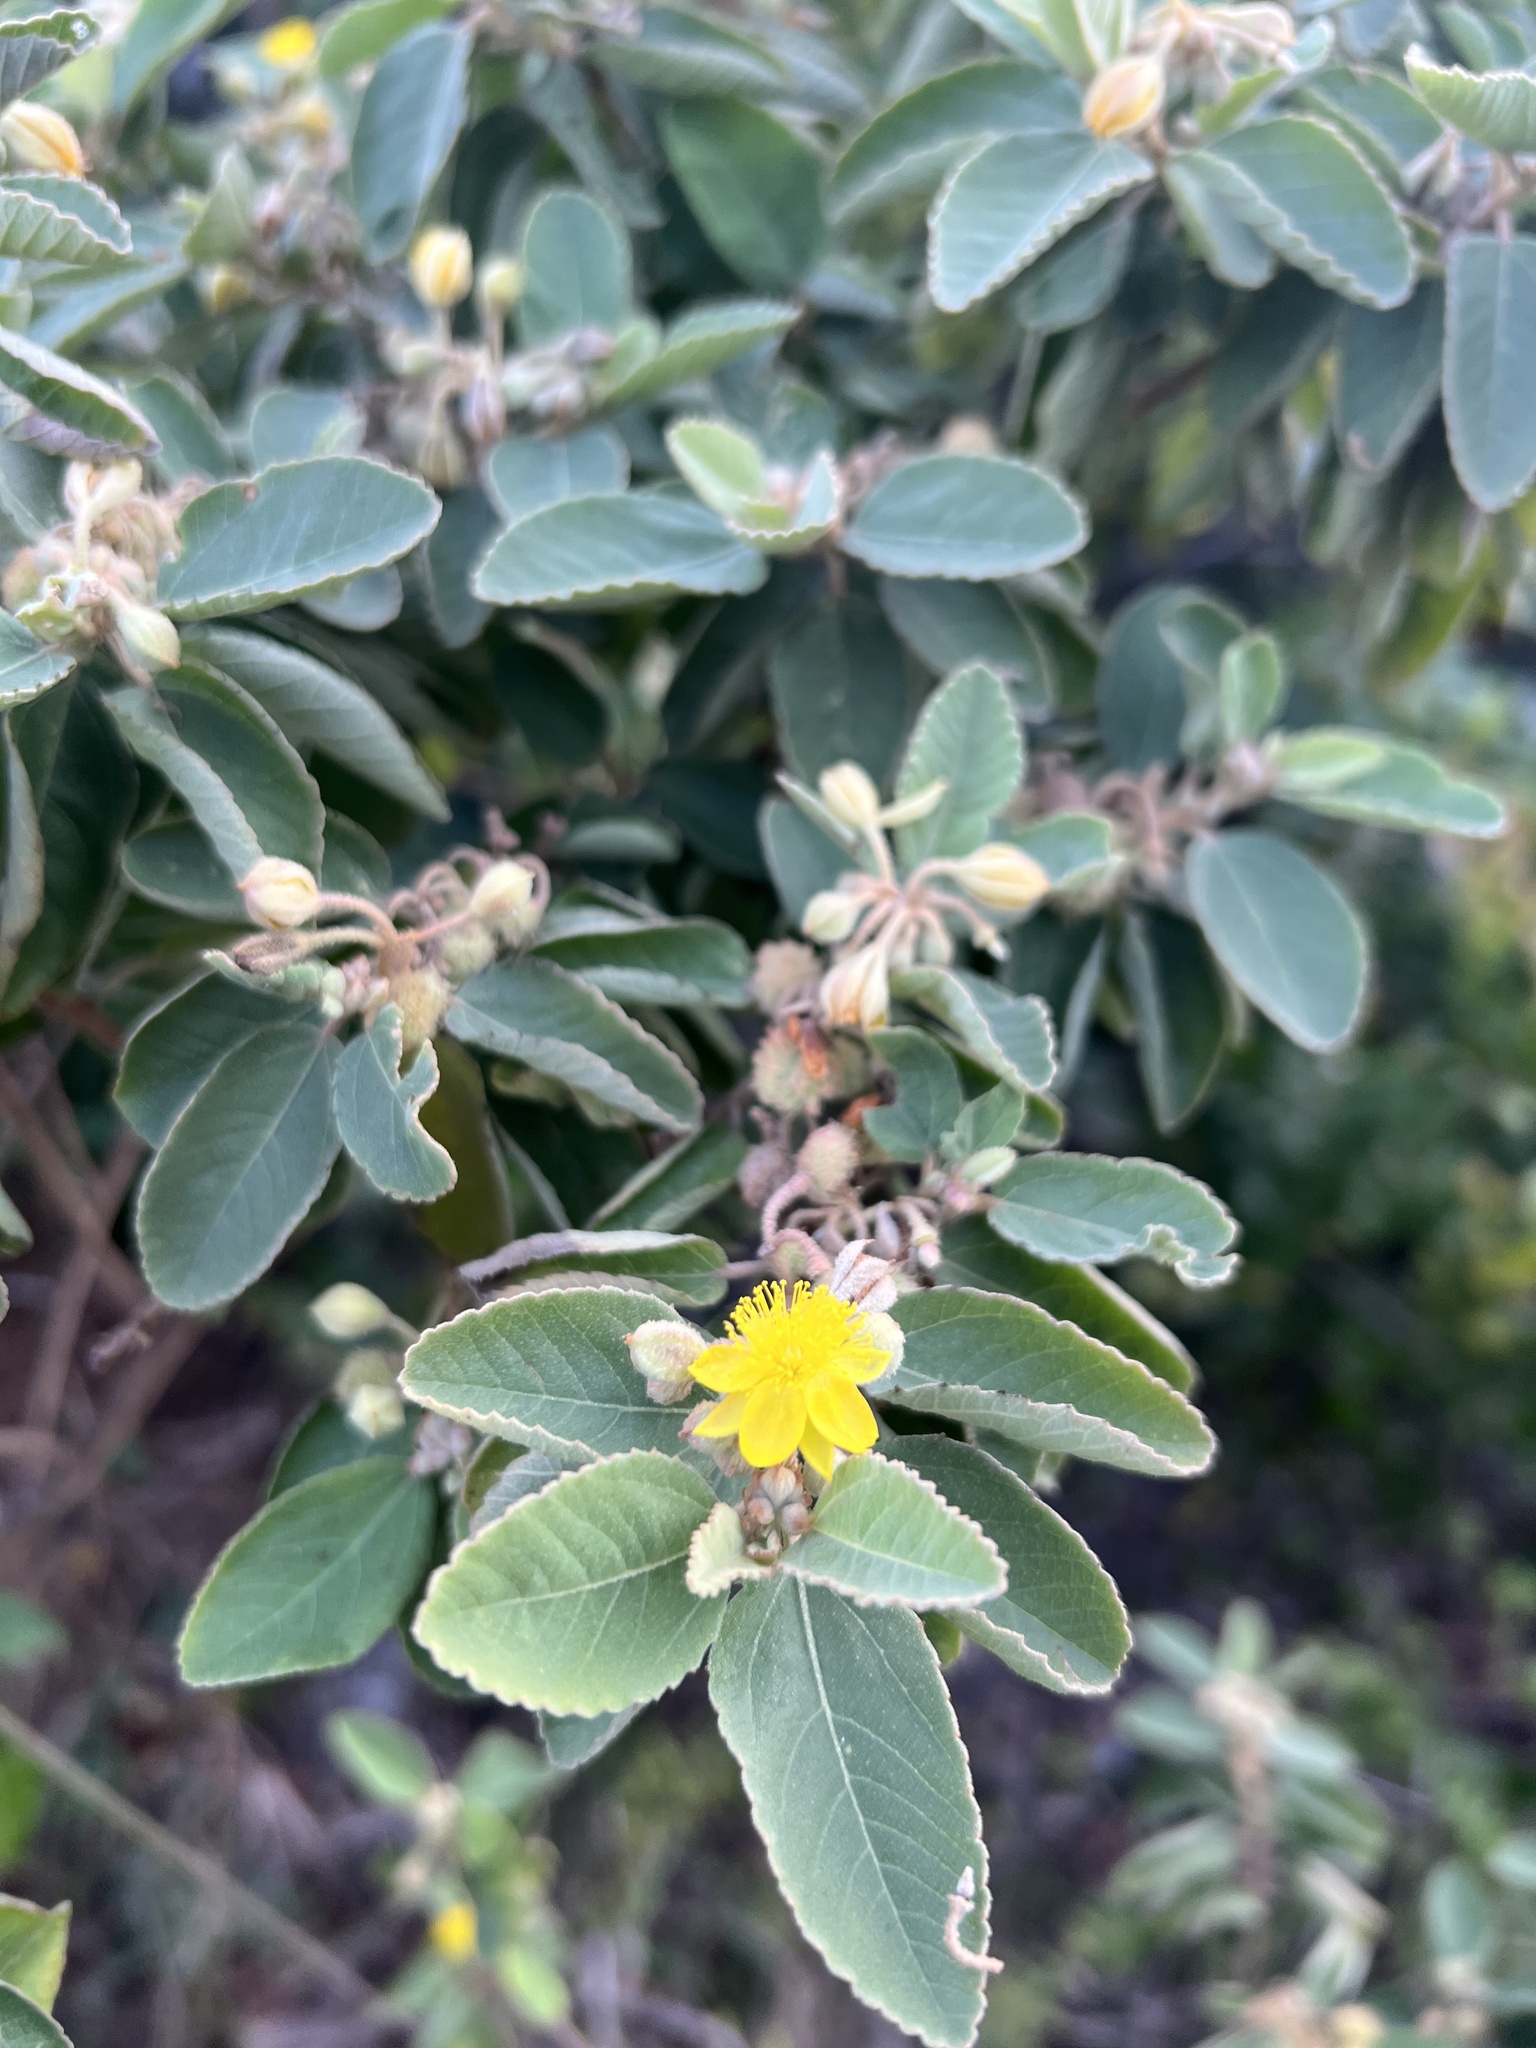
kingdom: Plantae
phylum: Tracheophyta
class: Magnoliopsida
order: Malvales
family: Malvaceae
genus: Corchorus
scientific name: Corchorus hirsutus
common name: Jackswitch
